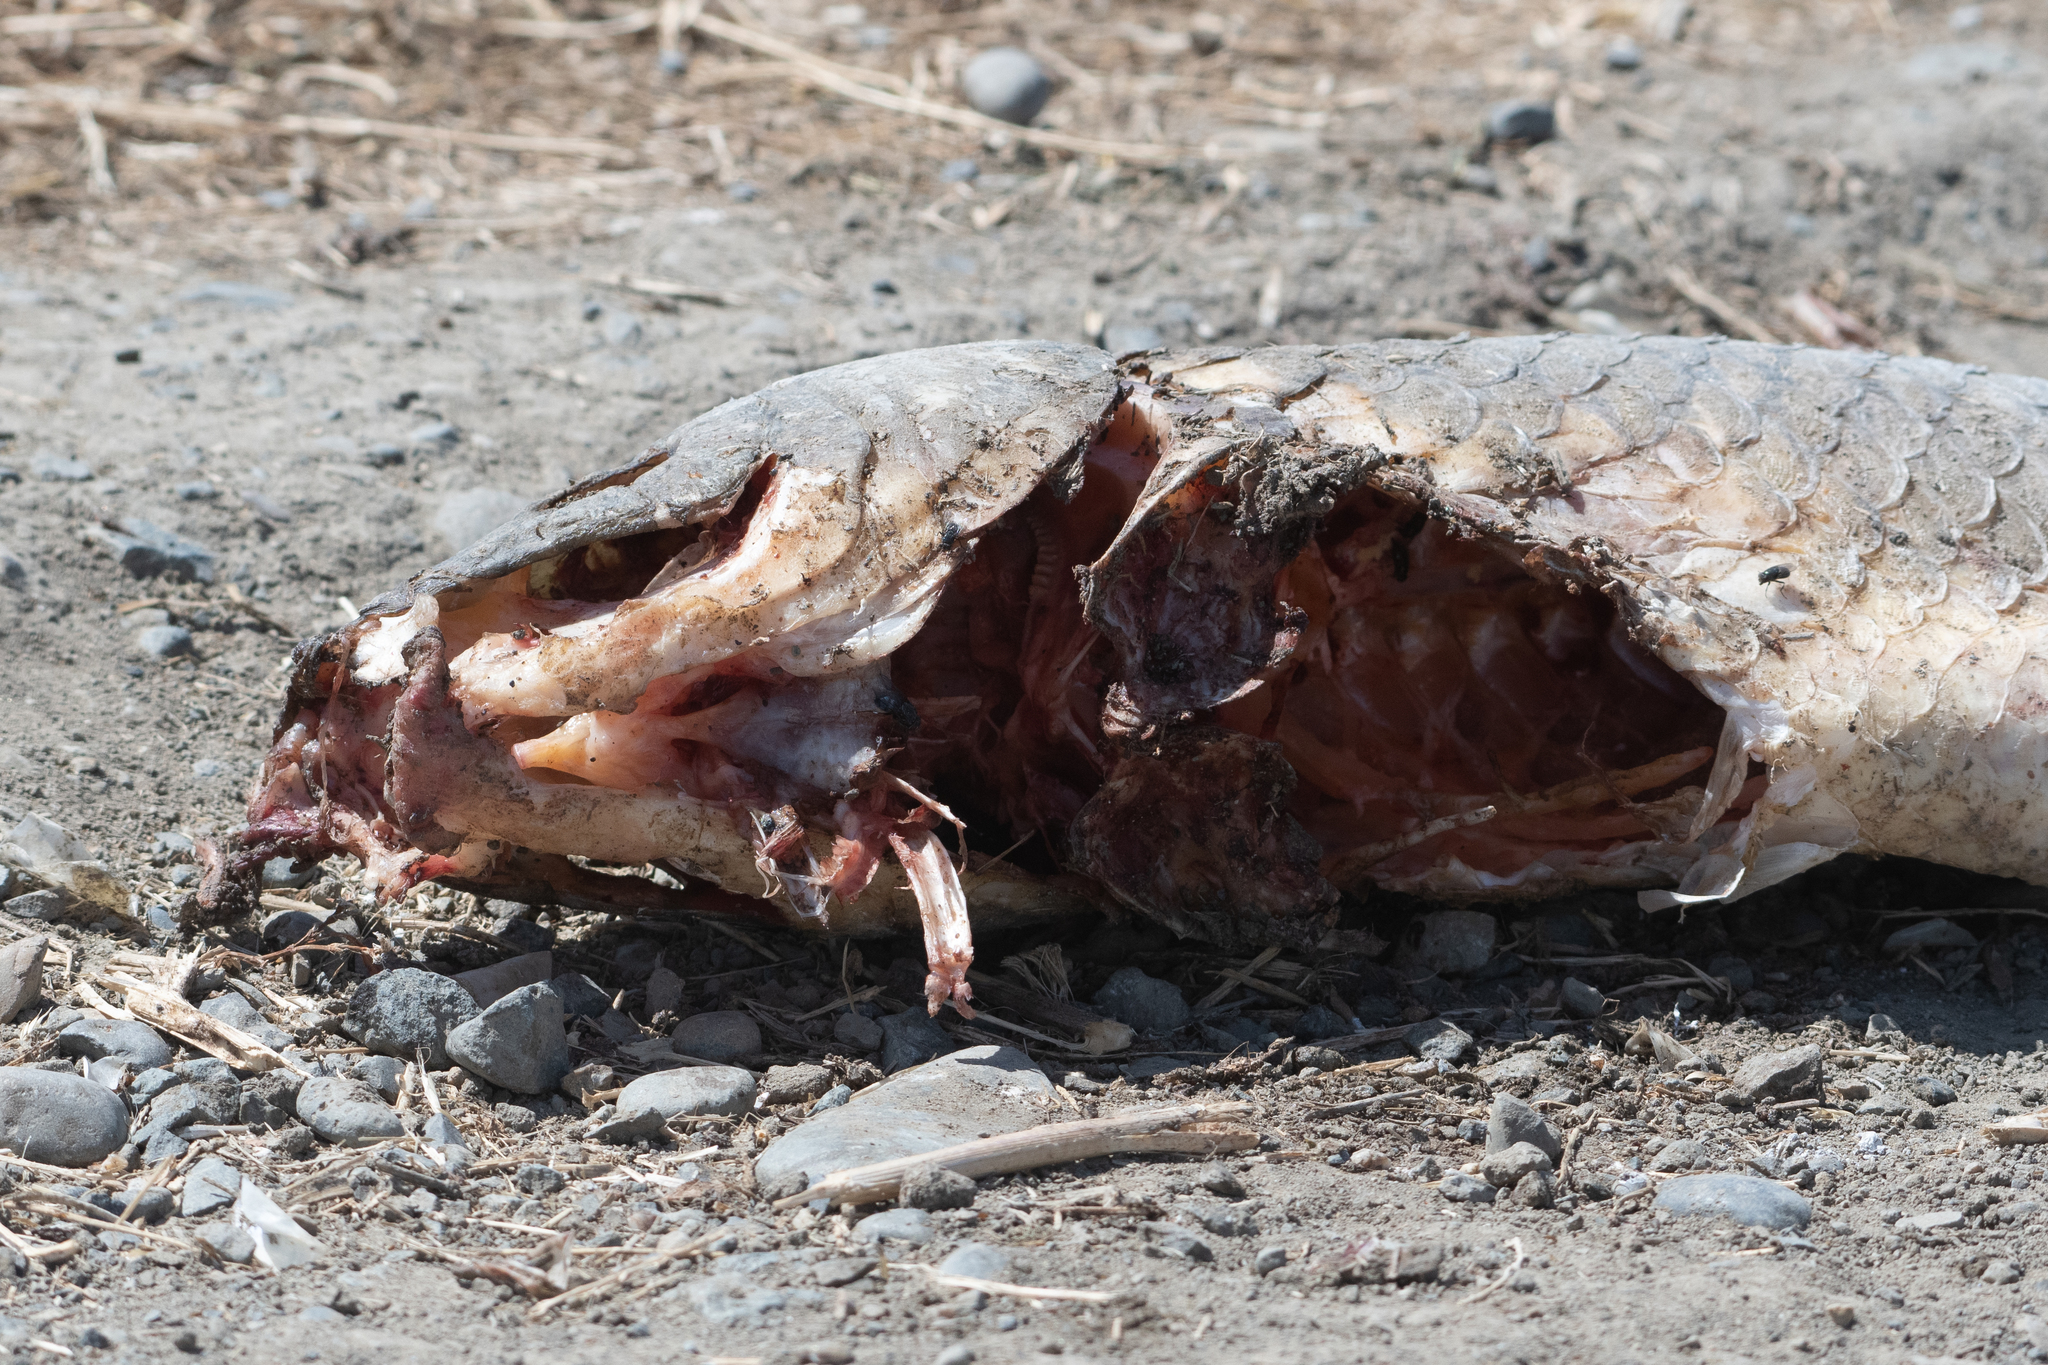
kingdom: Animalia
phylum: Chordata
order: Cypriniformes
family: Cyprinidae
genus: Cyprinus
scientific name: Cyprinus carpio
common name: Common carp
